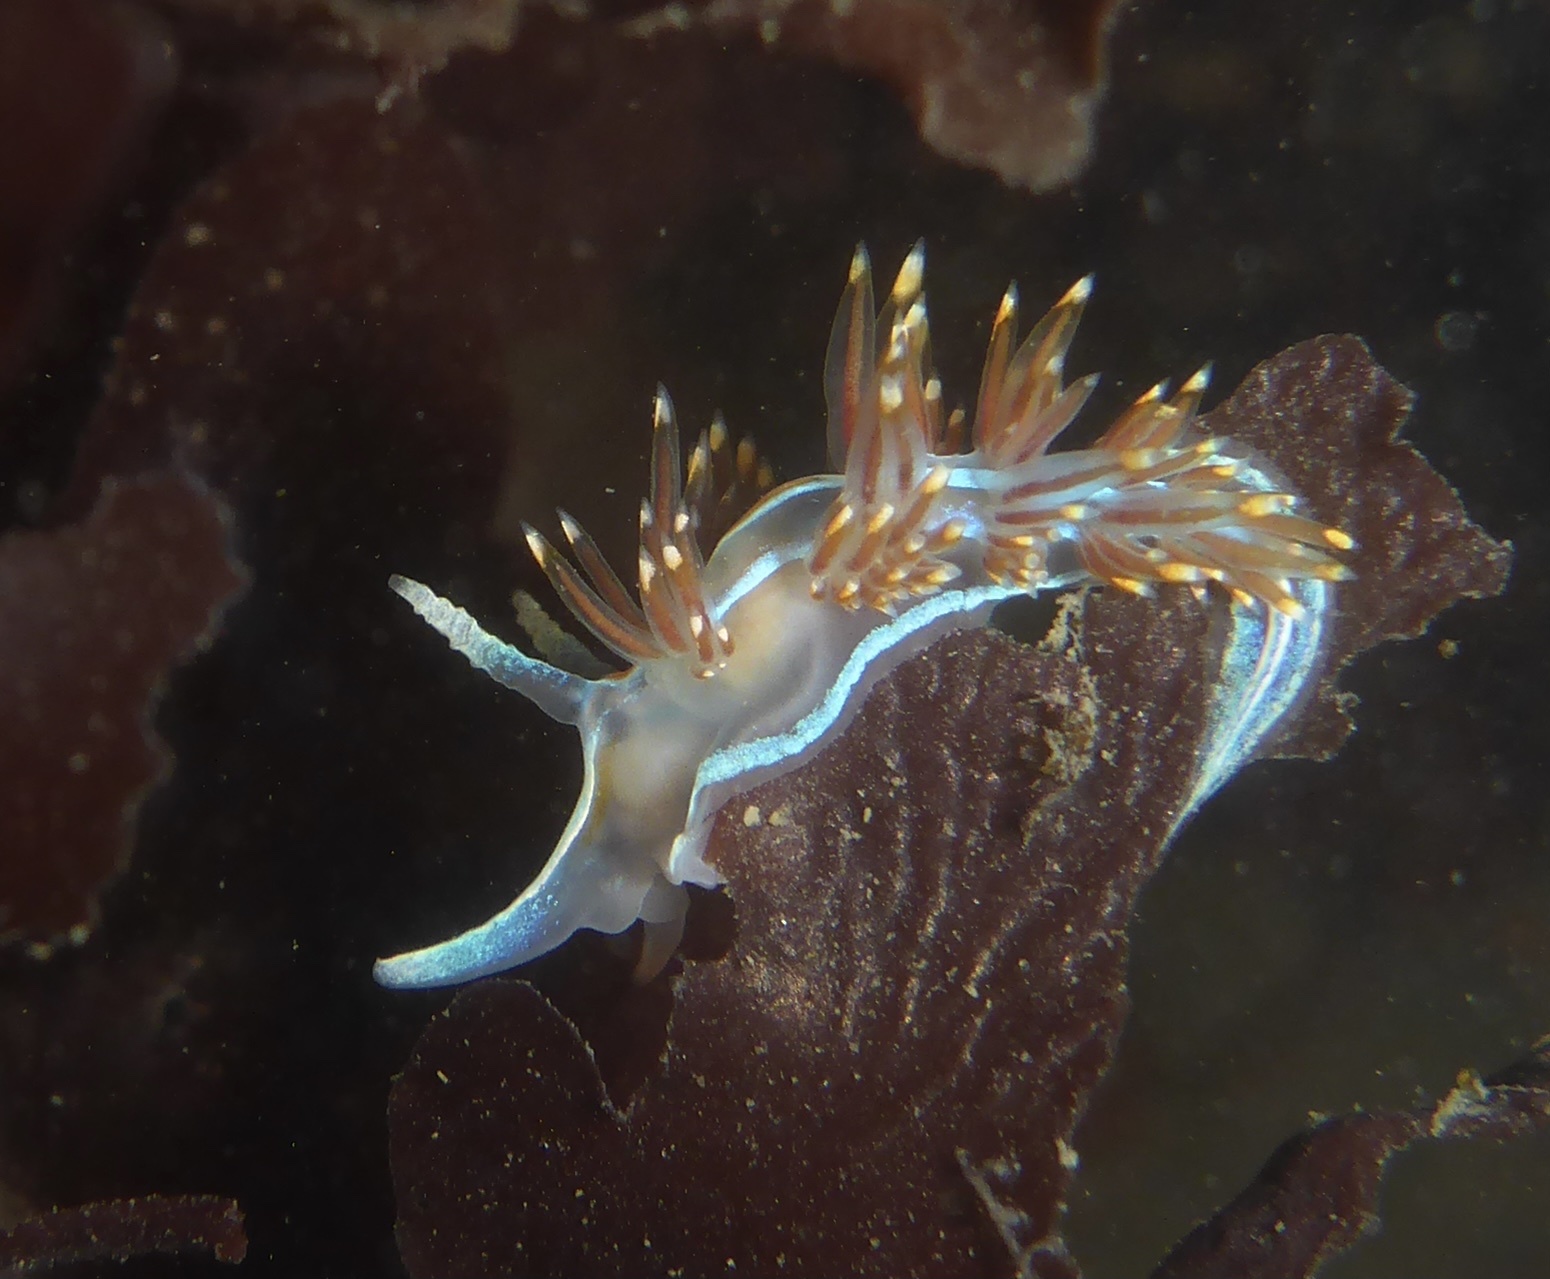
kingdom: Animalia
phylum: Mollusca
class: Gastropoda
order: Nudibranchia
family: Myrrhinidae
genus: Hermissenda
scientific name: Hermissenda opalescens
